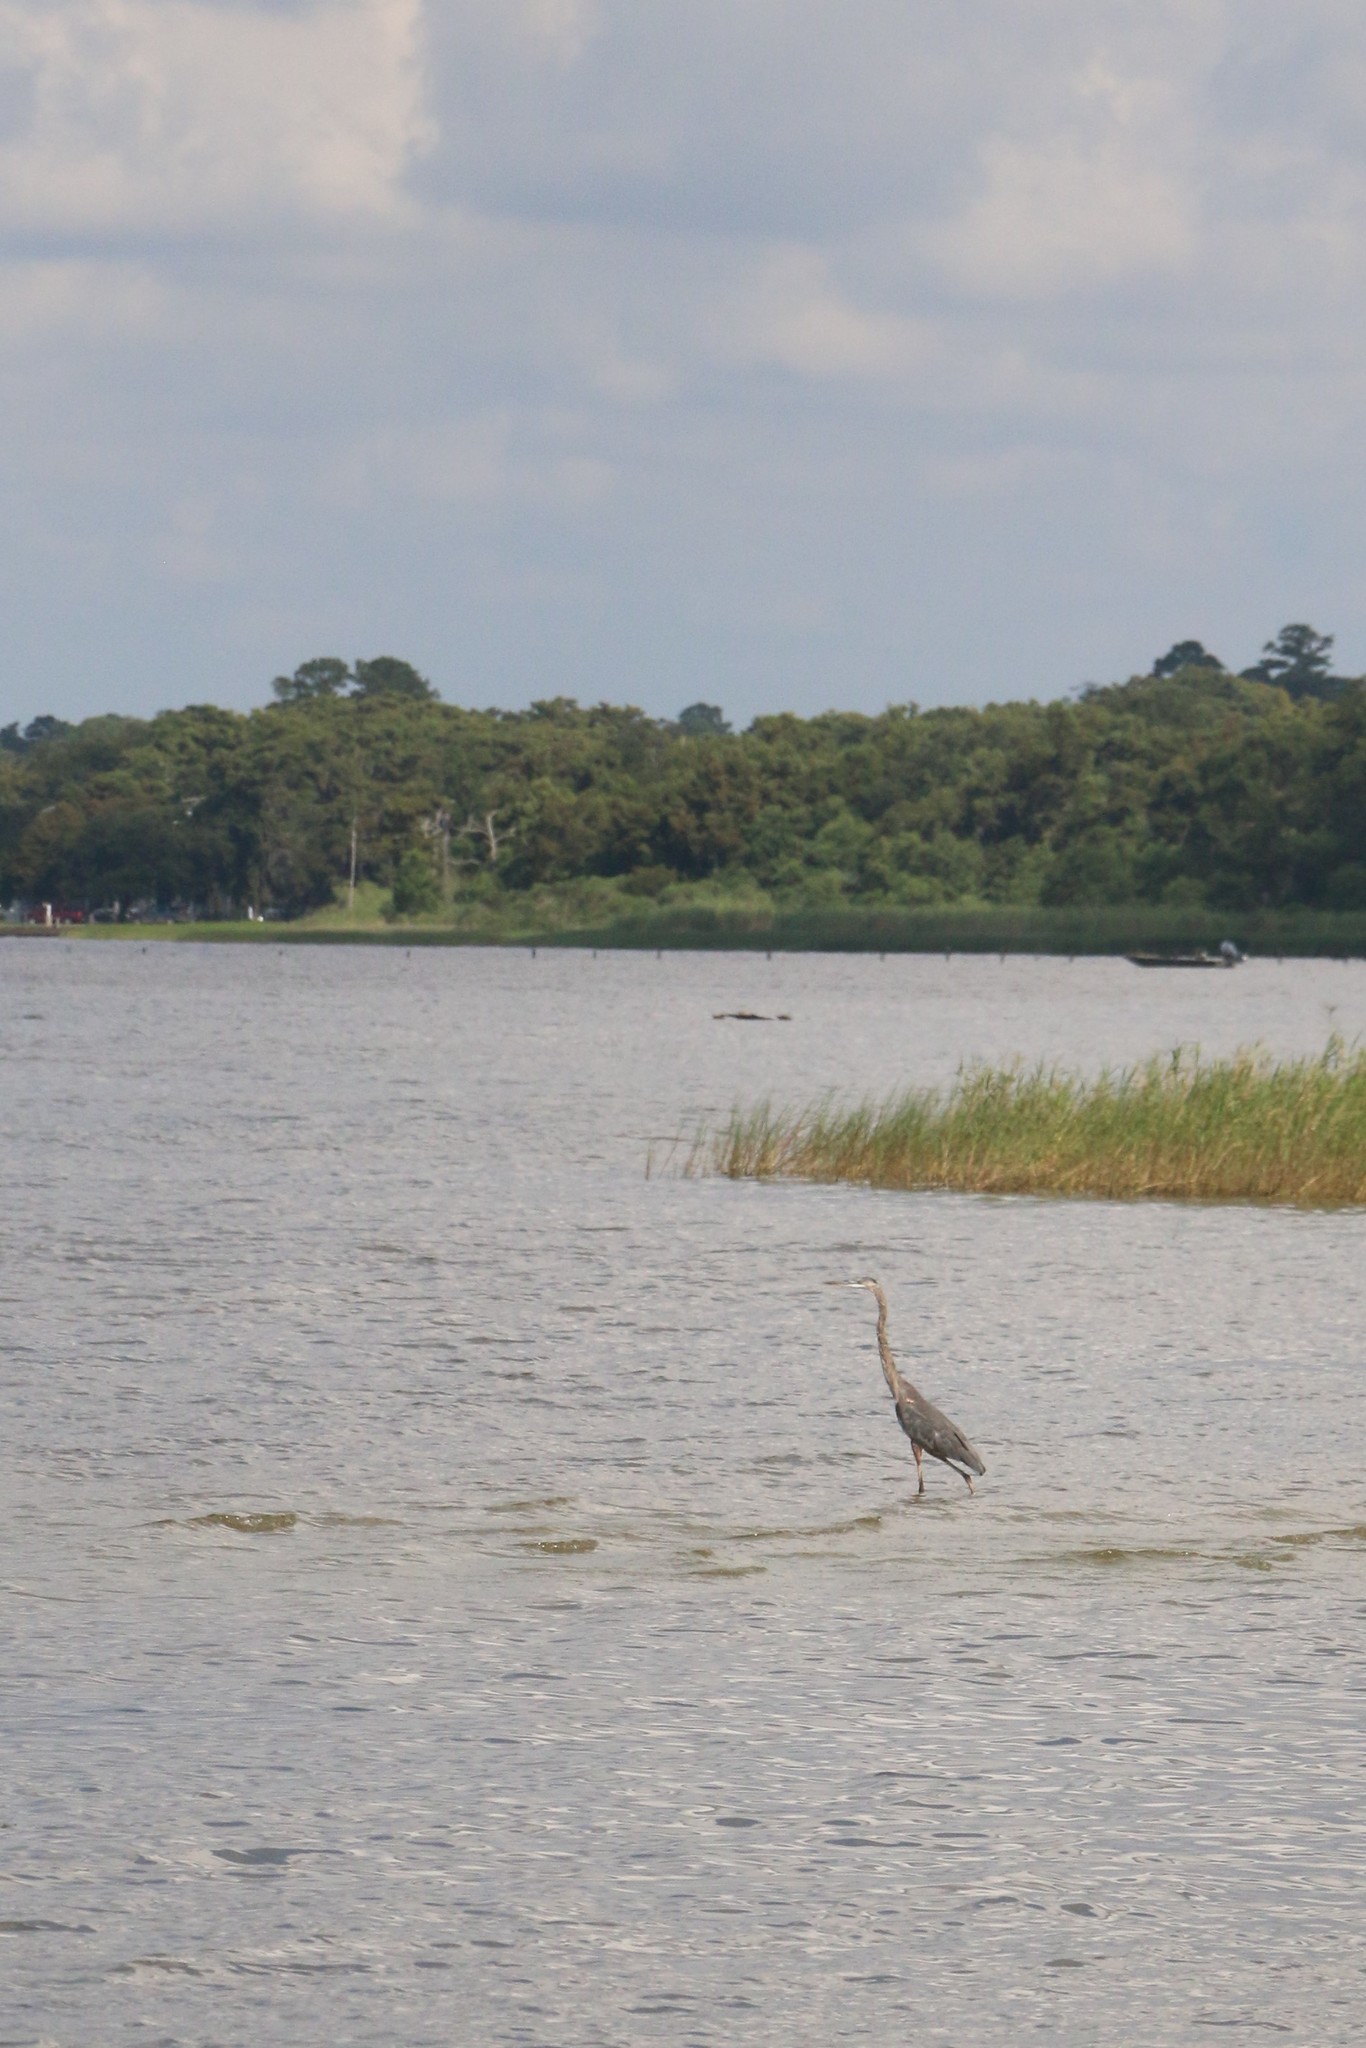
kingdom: Animalia
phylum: Chordata
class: Aves
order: Pelecaniformes
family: Ardeidae
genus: Ardea
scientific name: Ardea herodias
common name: Great blue heron
